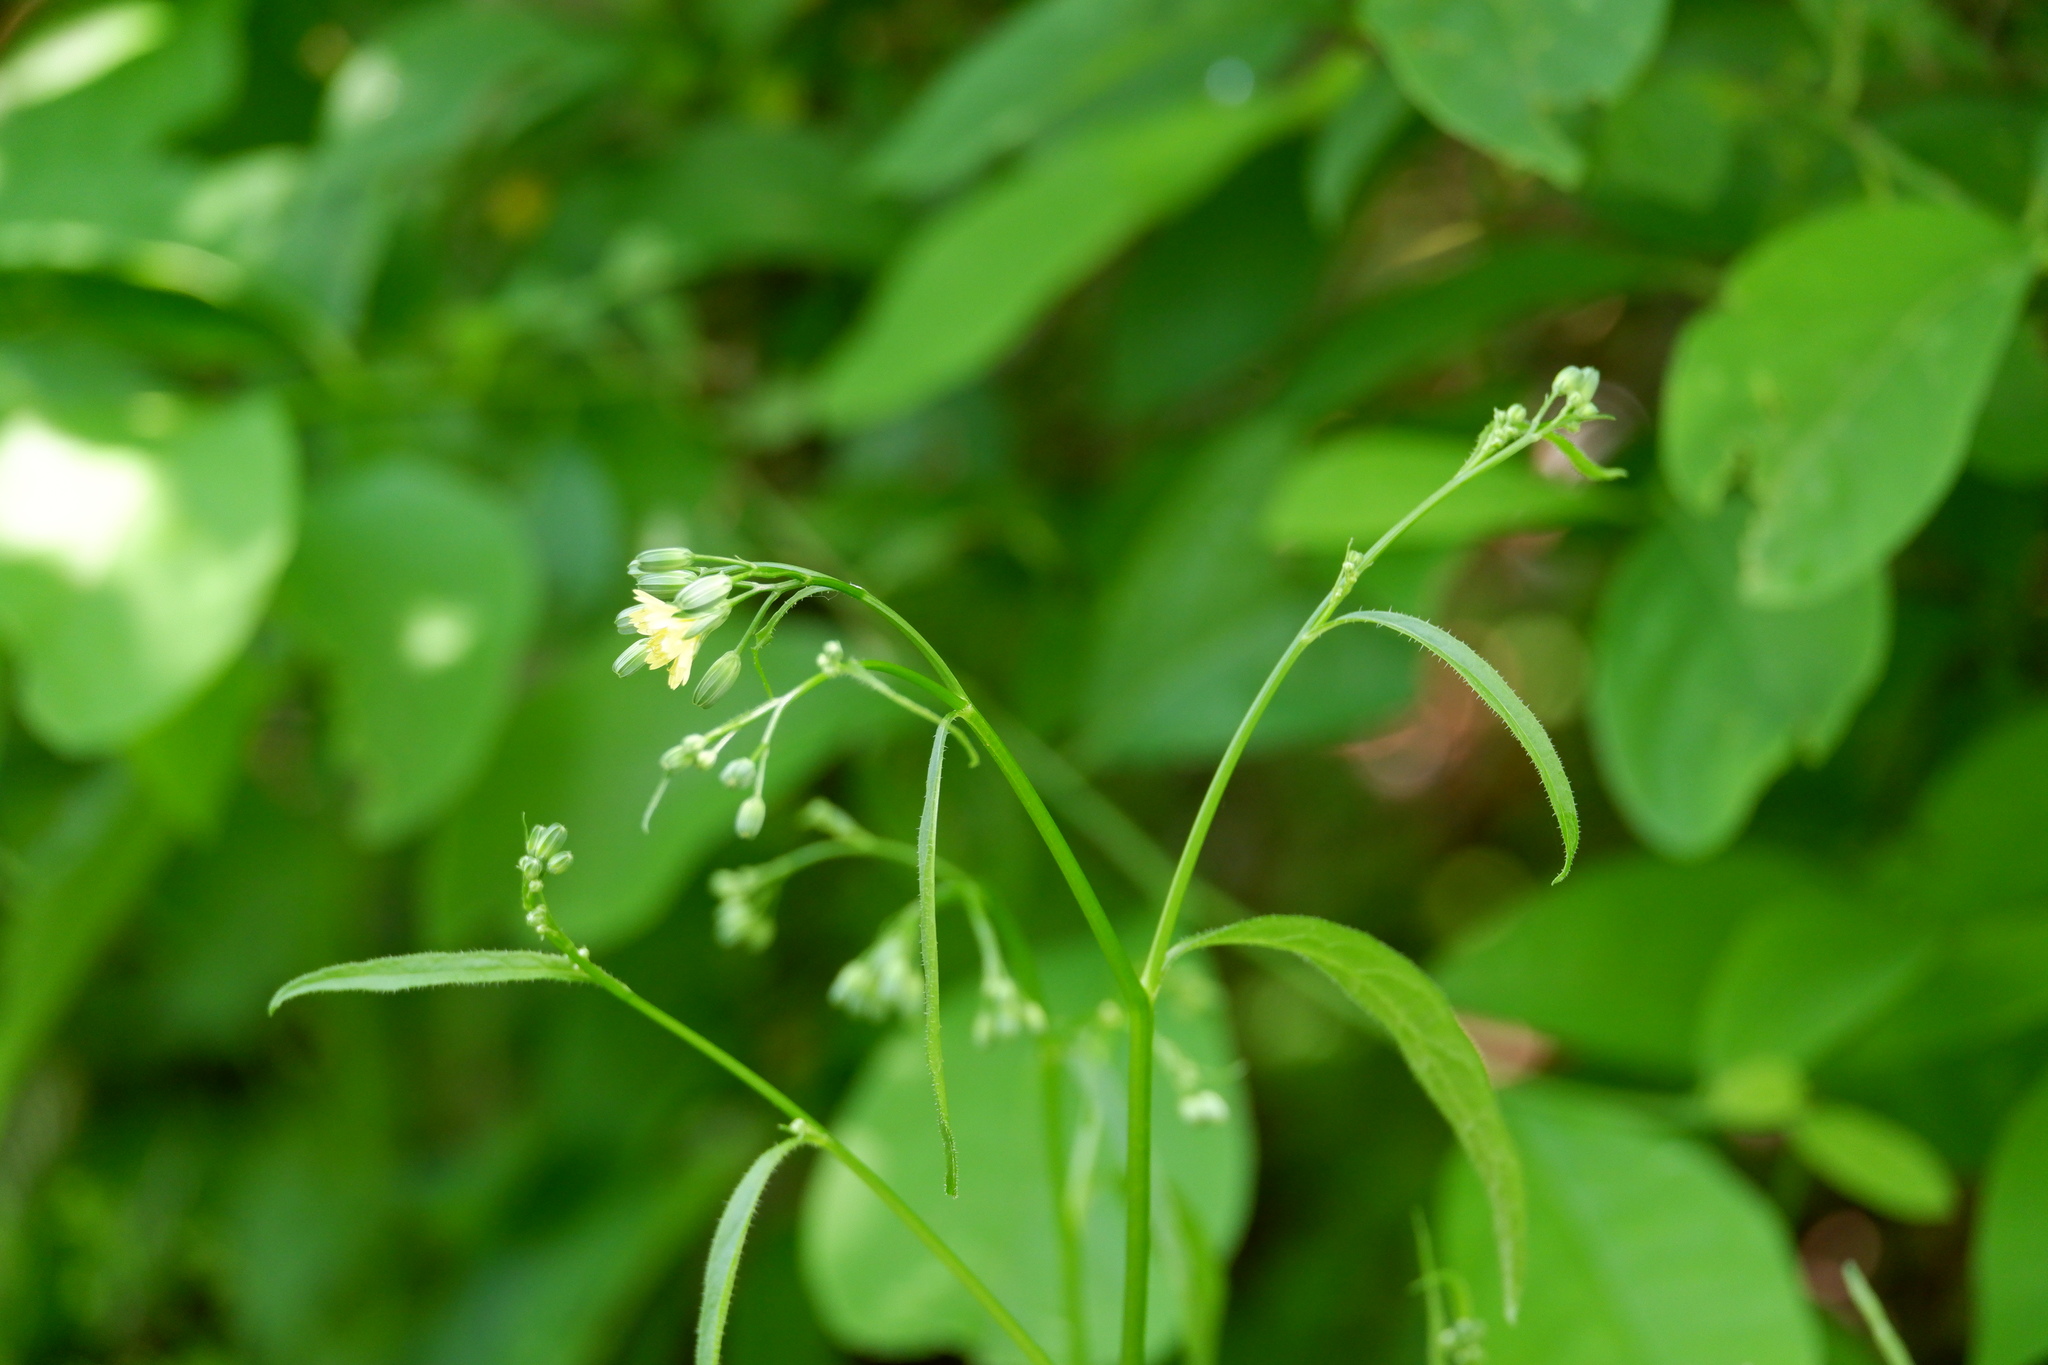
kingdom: Plantae
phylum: Tracheophyta
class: Magnoliopsida
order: Asterales
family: Asteraceae
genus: Lapsana
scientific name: Lapsana communis
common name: Nipplewort
